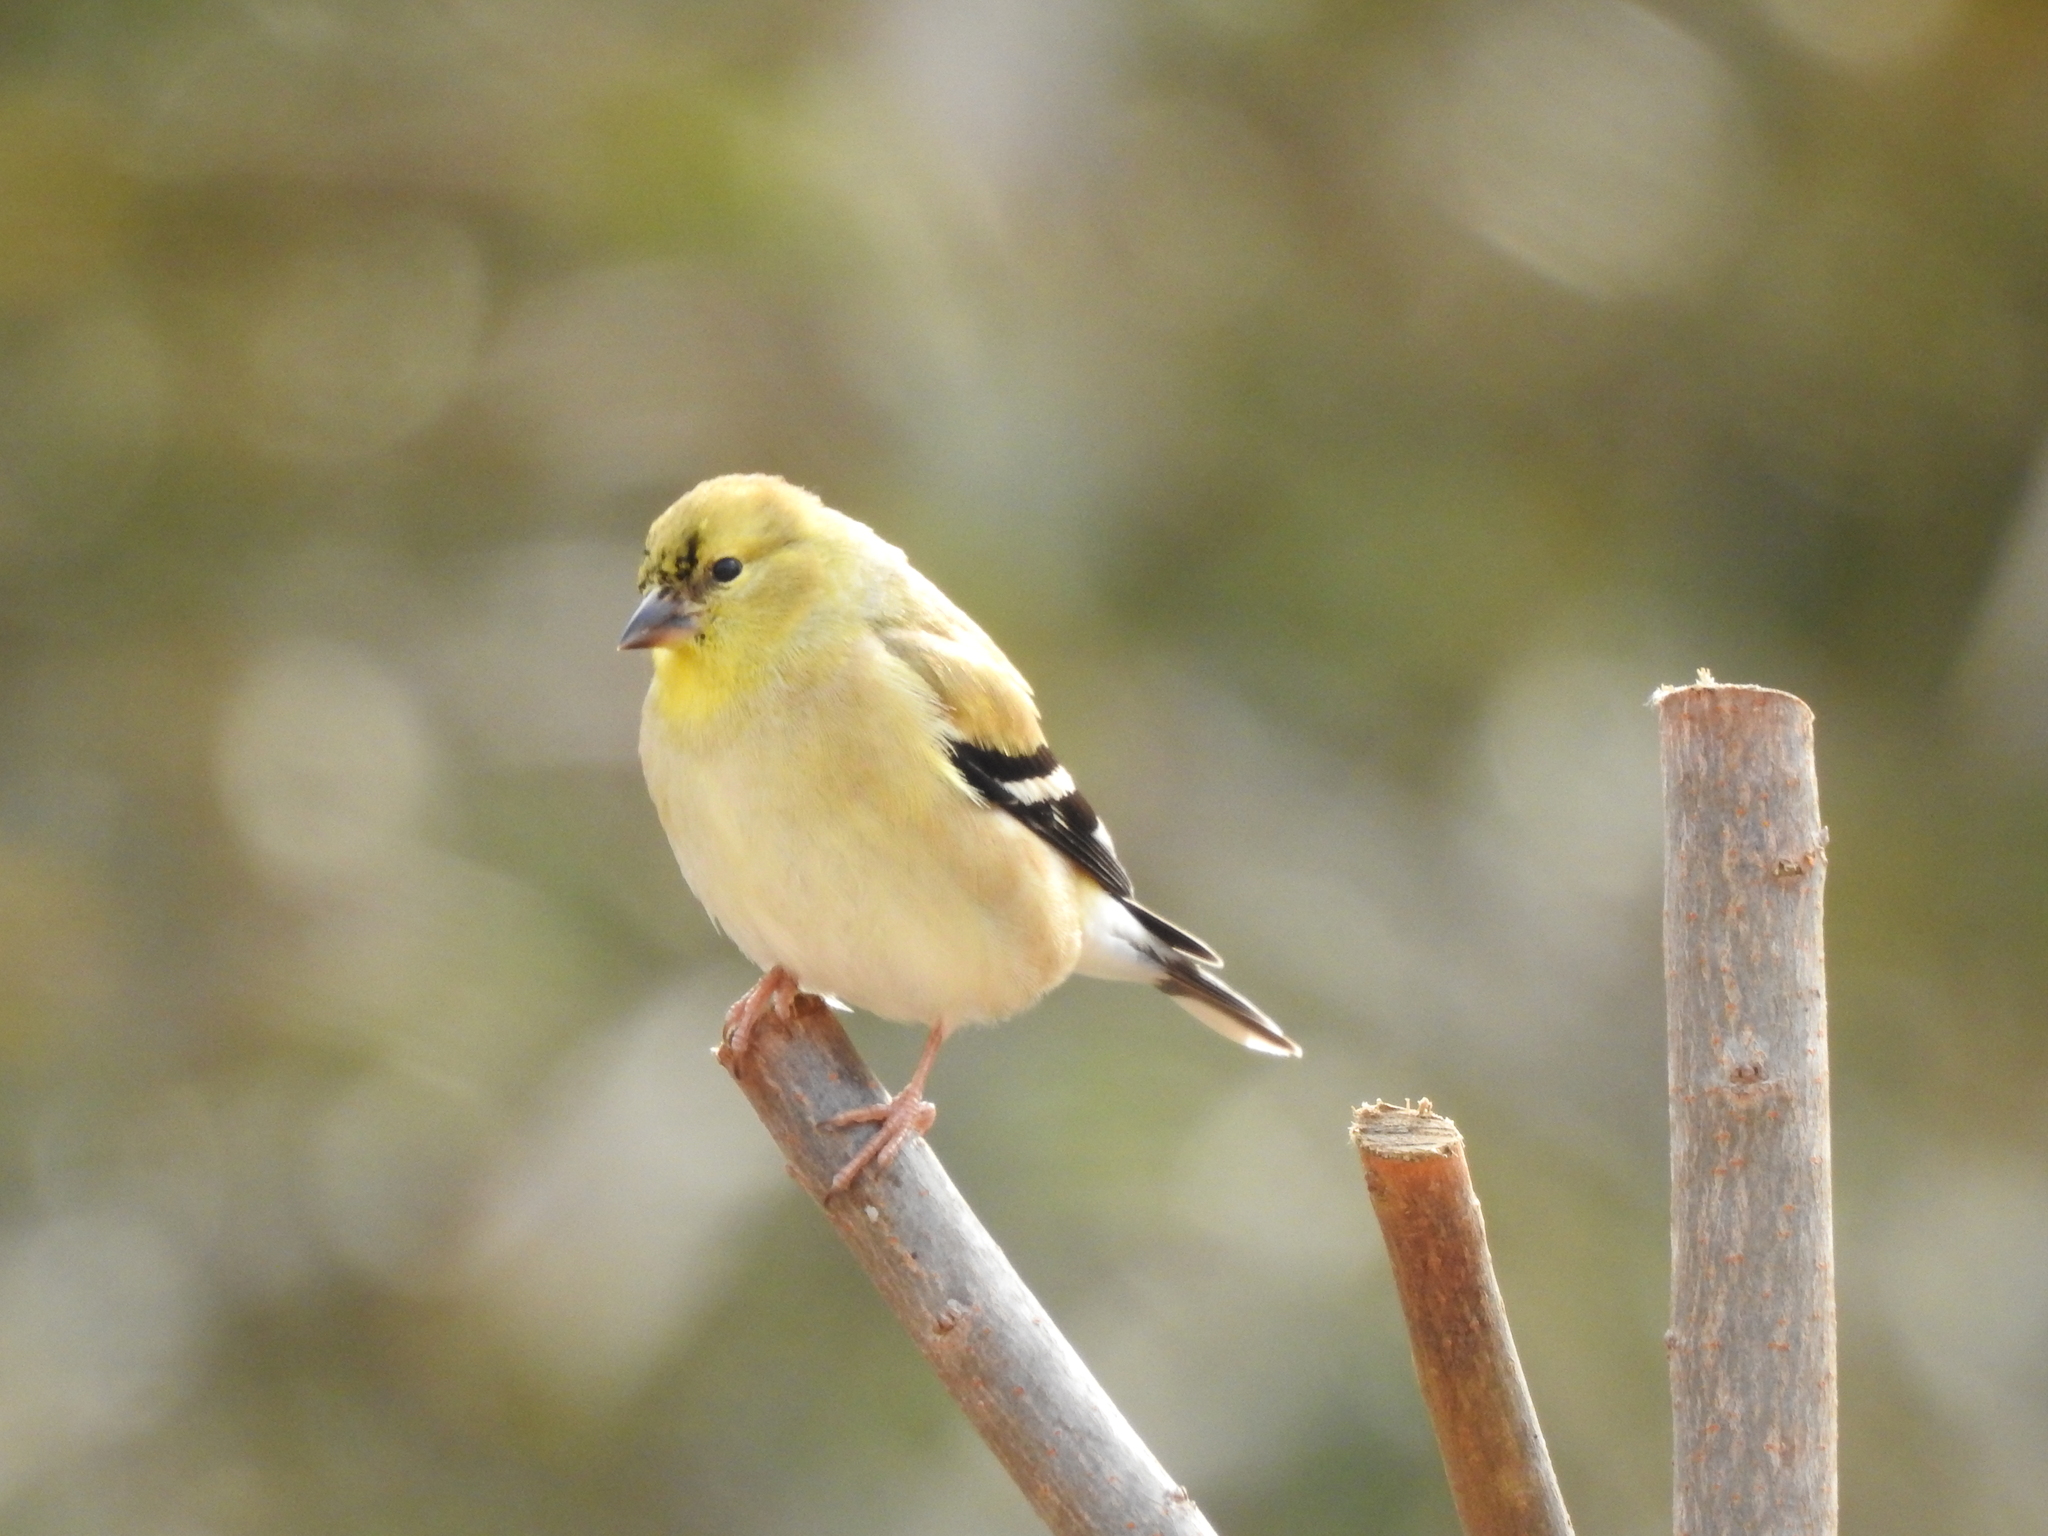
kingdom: Animalia
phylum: Chordata
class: Aves
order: Passeriformes
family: Fringillidae
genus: Spinus
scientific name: Spinus tristis
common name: American goldfinch
